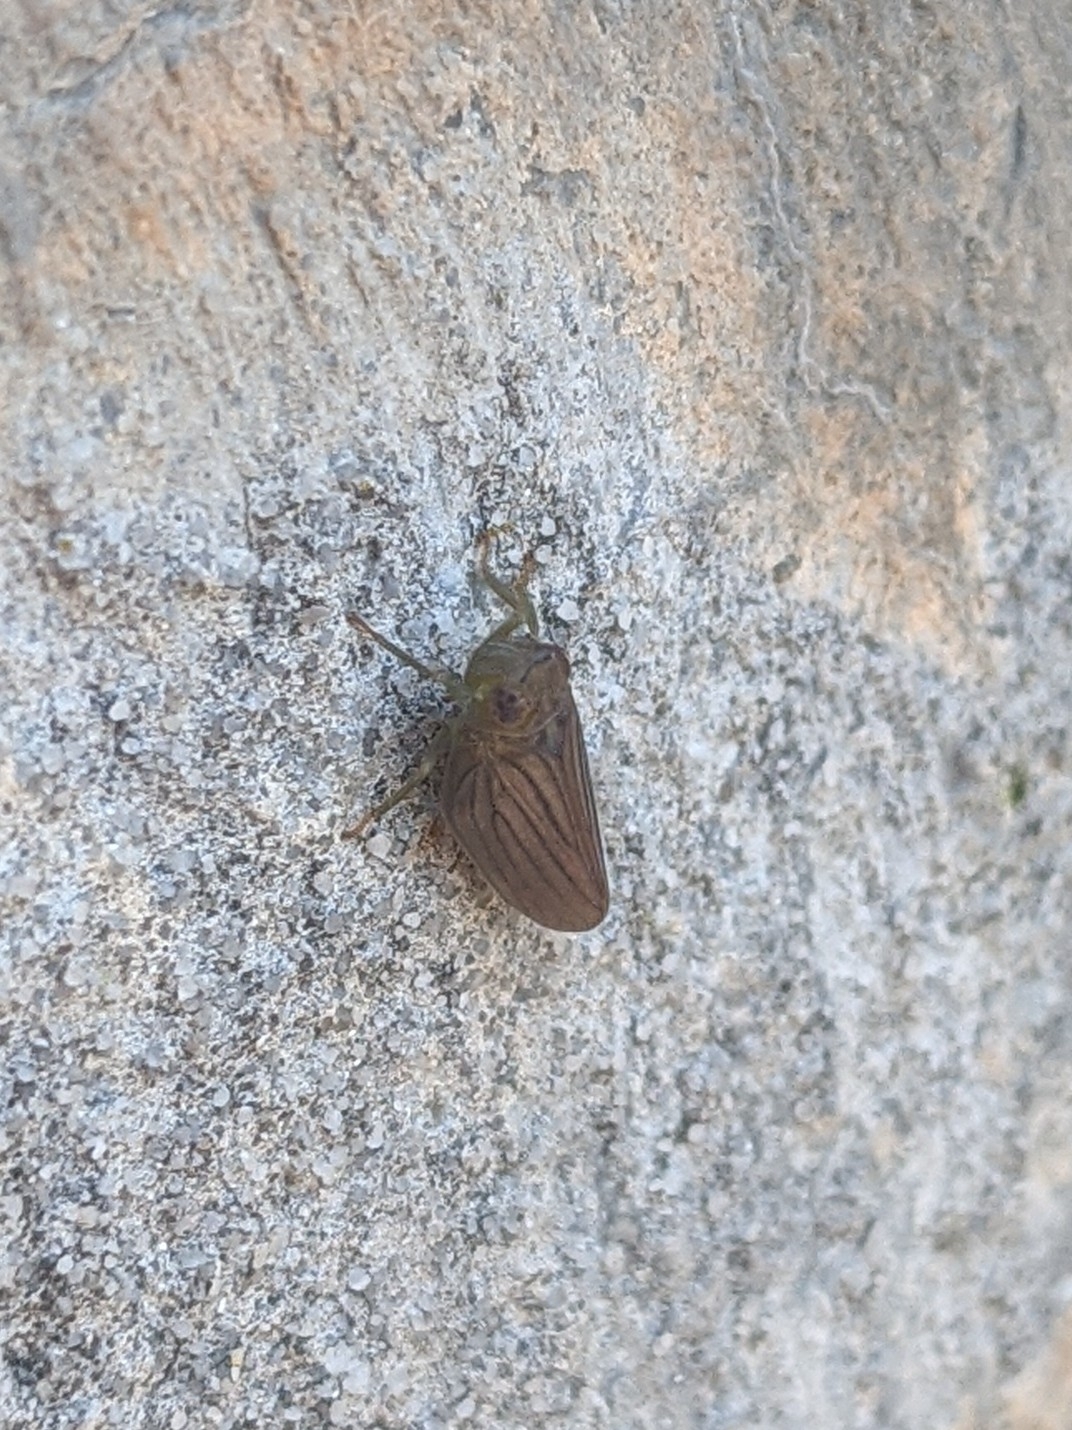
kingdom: Animalia
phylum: Arthropoda
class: Insecta
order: Hemiptera
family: Issidae
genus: Aplos
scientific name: Aplos simplex
